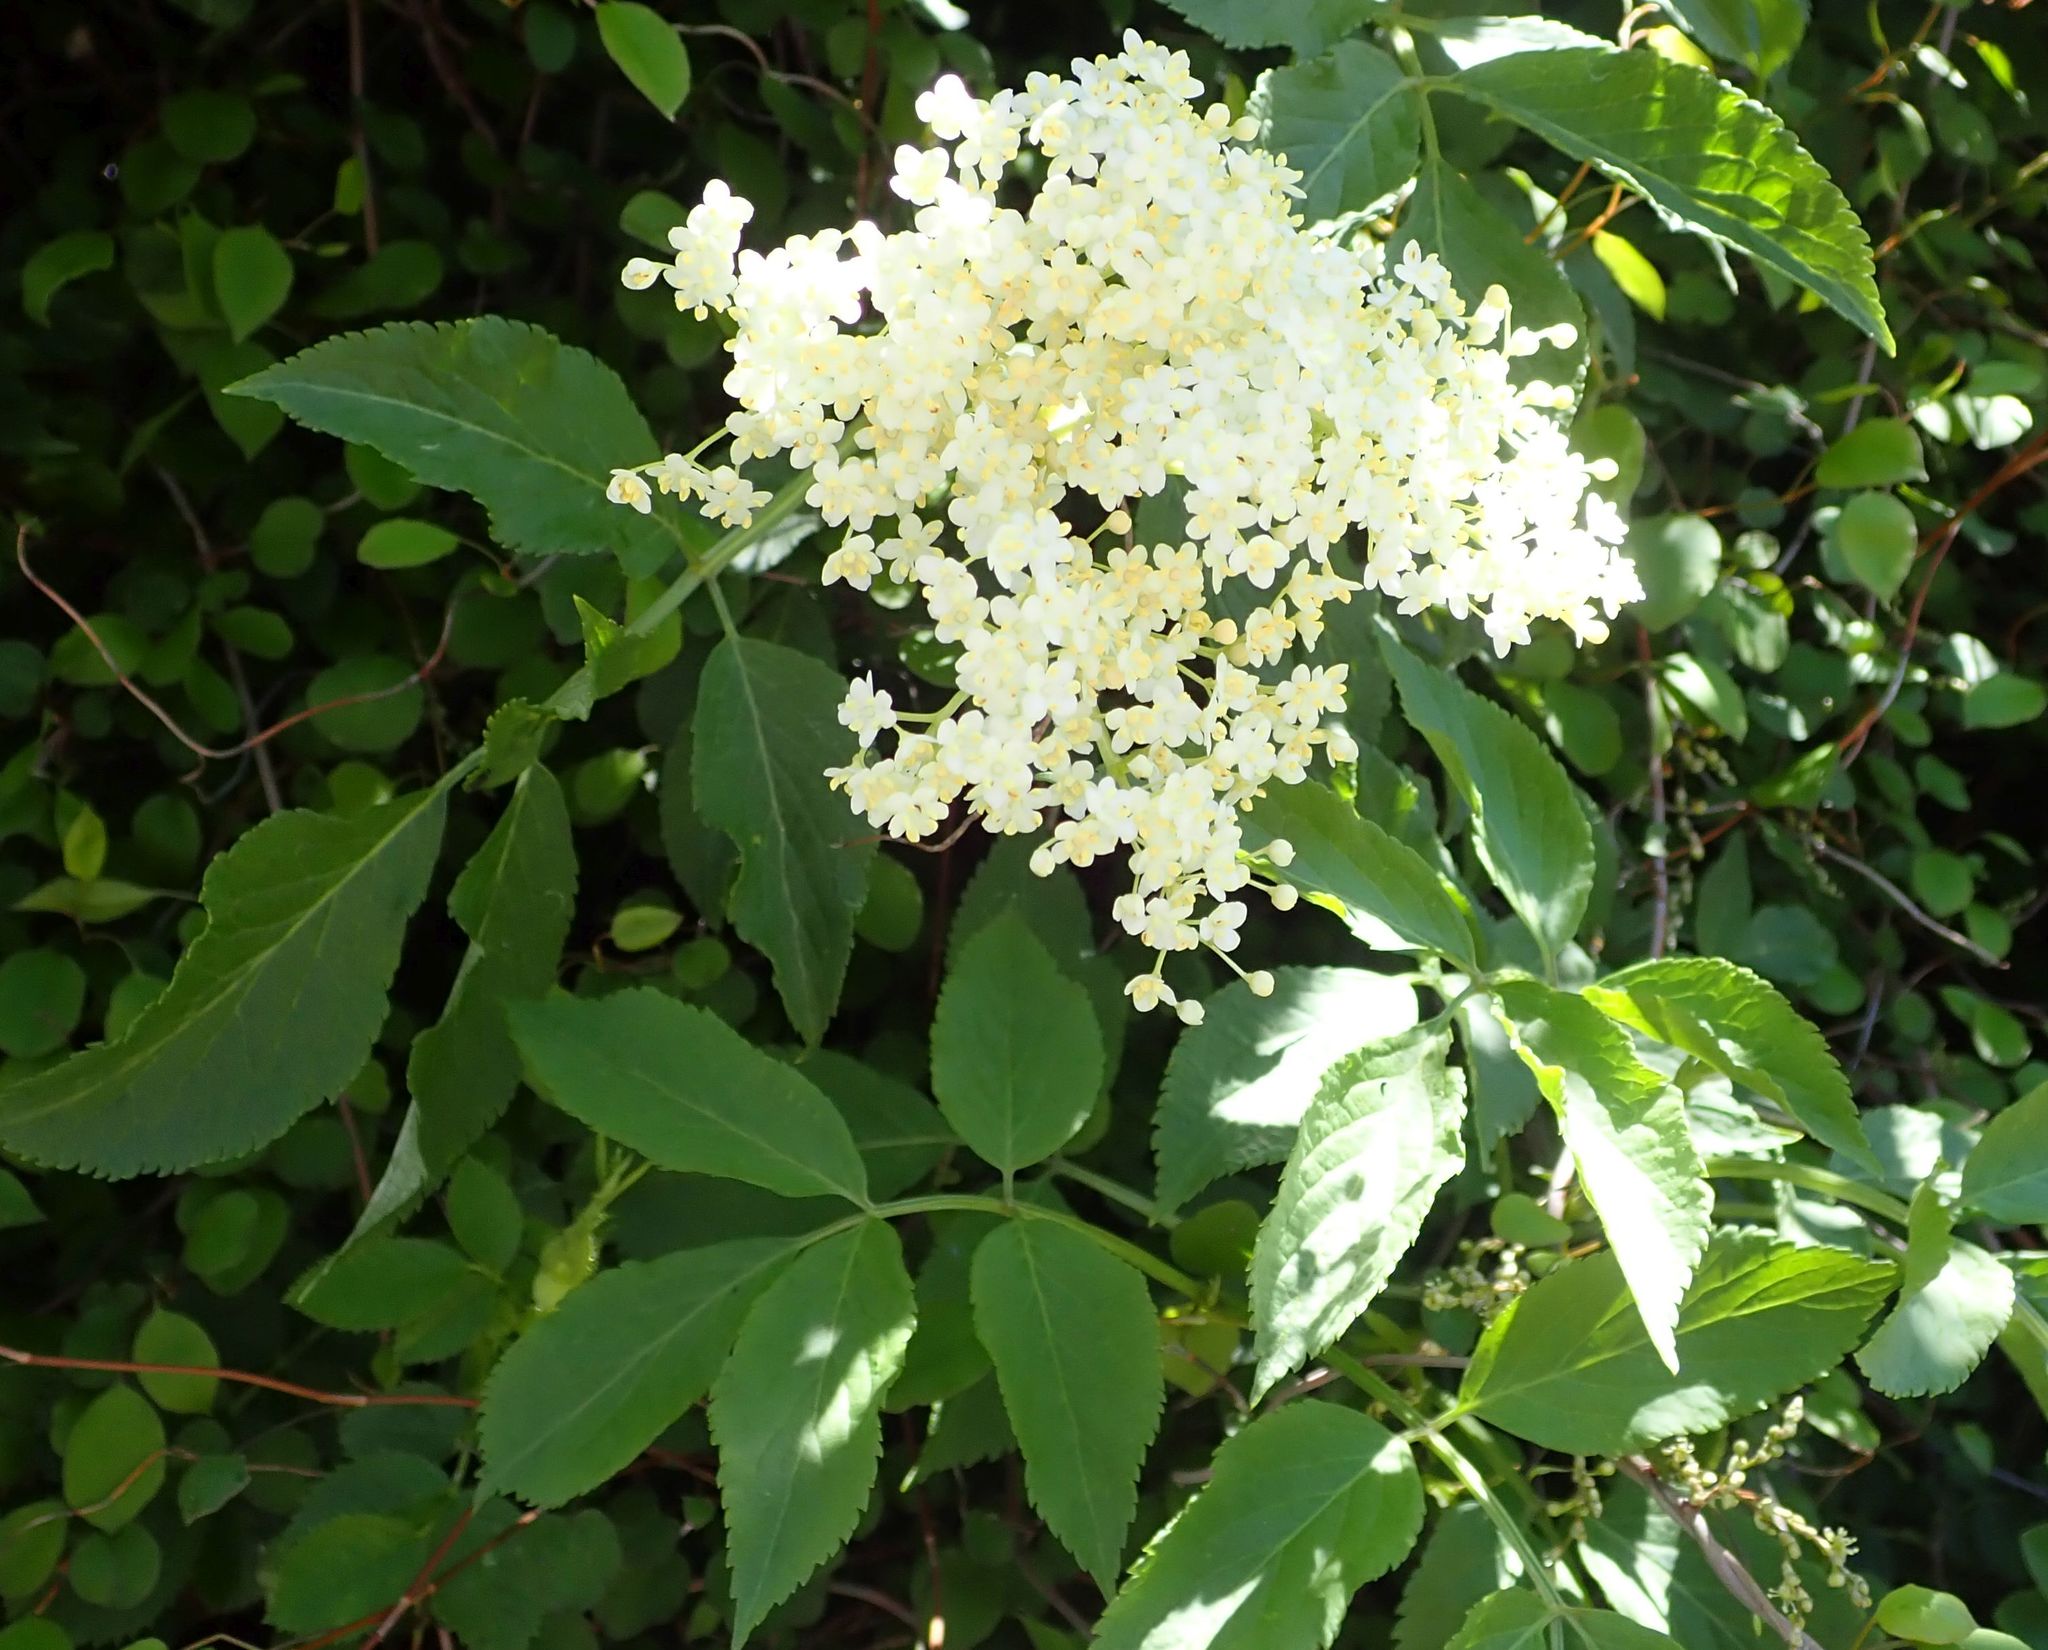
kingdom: Plantae
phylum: Tracheophyta
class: Magnoliopsida
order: Dipsacales
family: Viburnaceae
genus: Sambucus
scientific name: Sambucus nigra
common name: Elder
